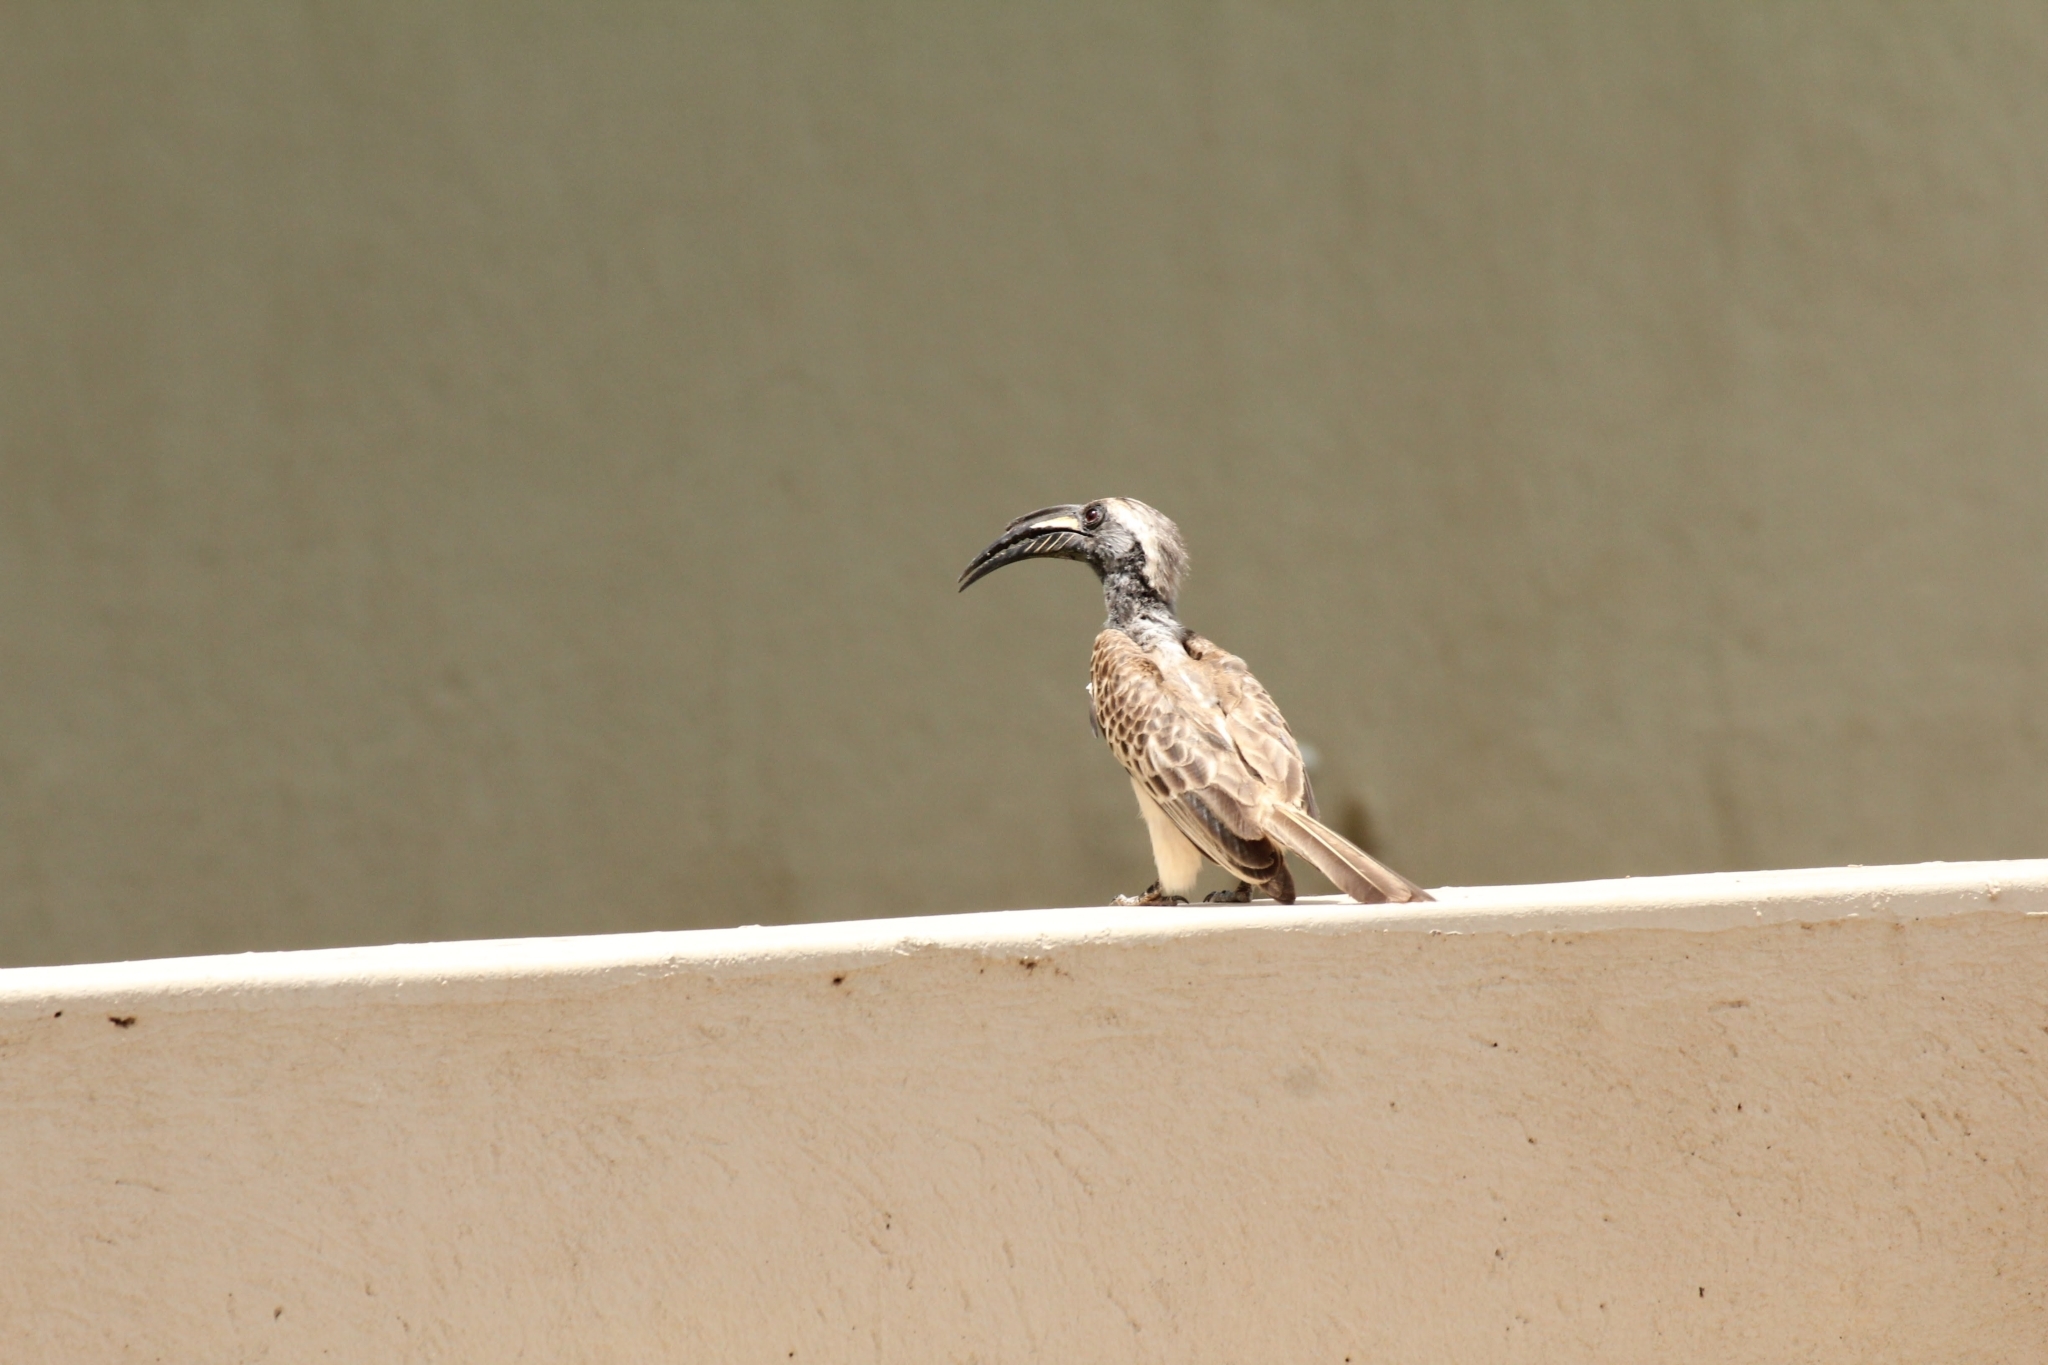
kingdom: Animalia
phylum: Chordata
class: Aves
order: Bucerotiformes
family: Bucerotidae
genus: Lophoceros
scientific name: Lophoceros nasutus
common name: African grey hornbill
